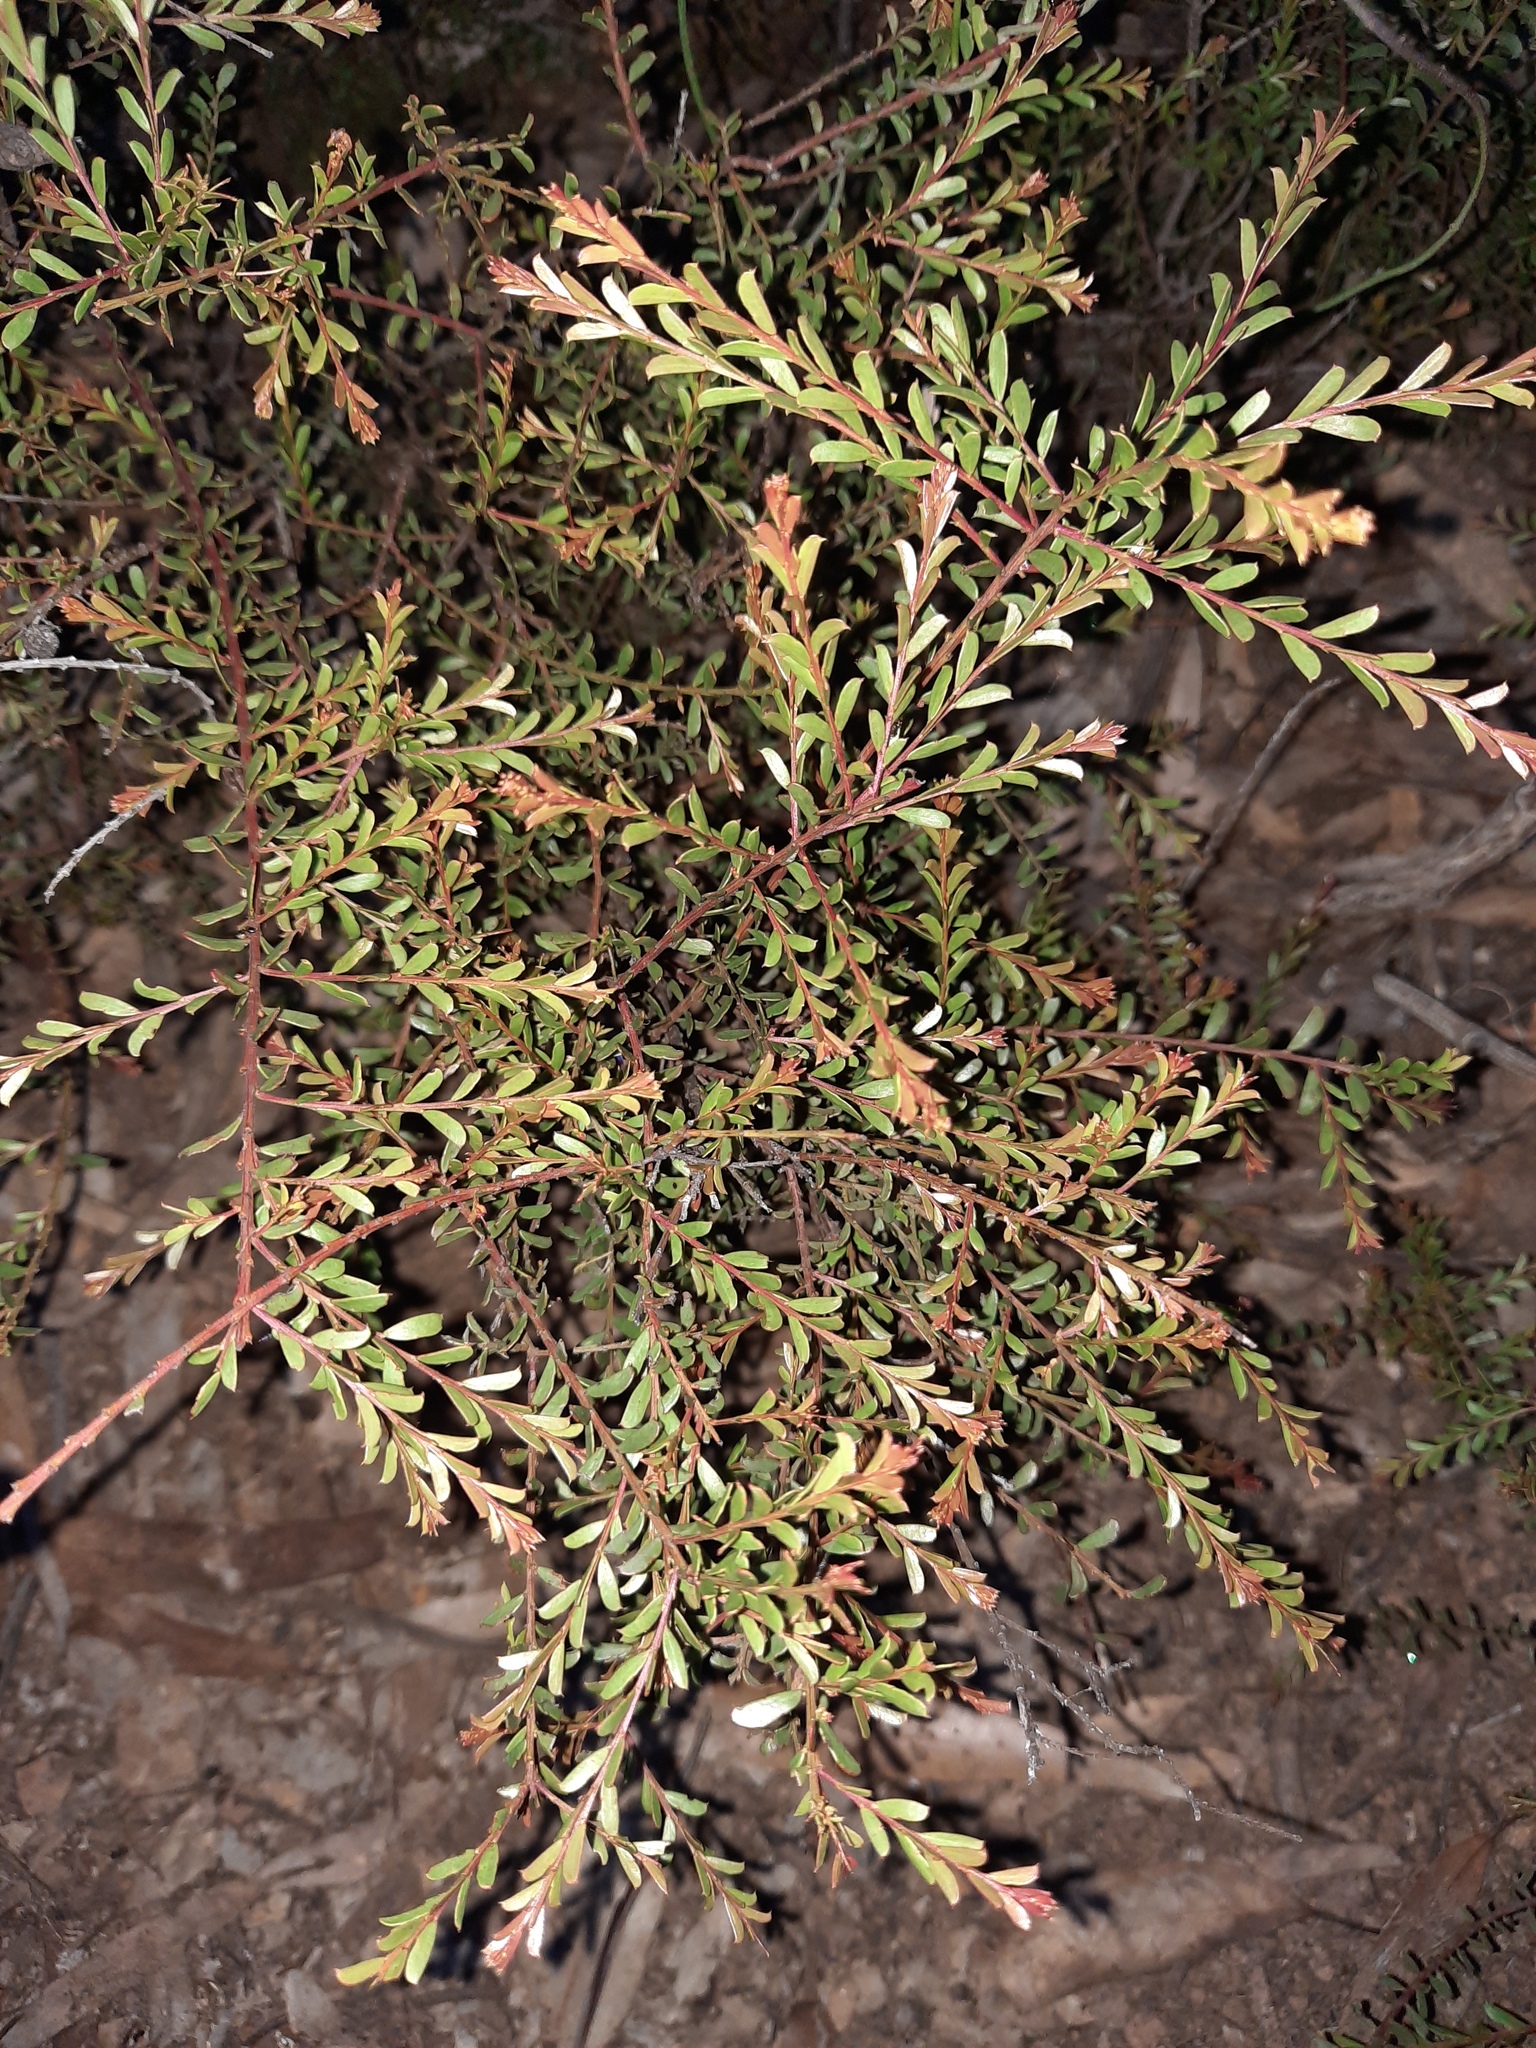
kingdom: Plantae
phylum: Tracheophyta
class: Magnoliopsida
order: Fabales
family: Fabaceae
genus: Acacia
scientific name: Acacia acinacea
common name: Gold-dust acacia
